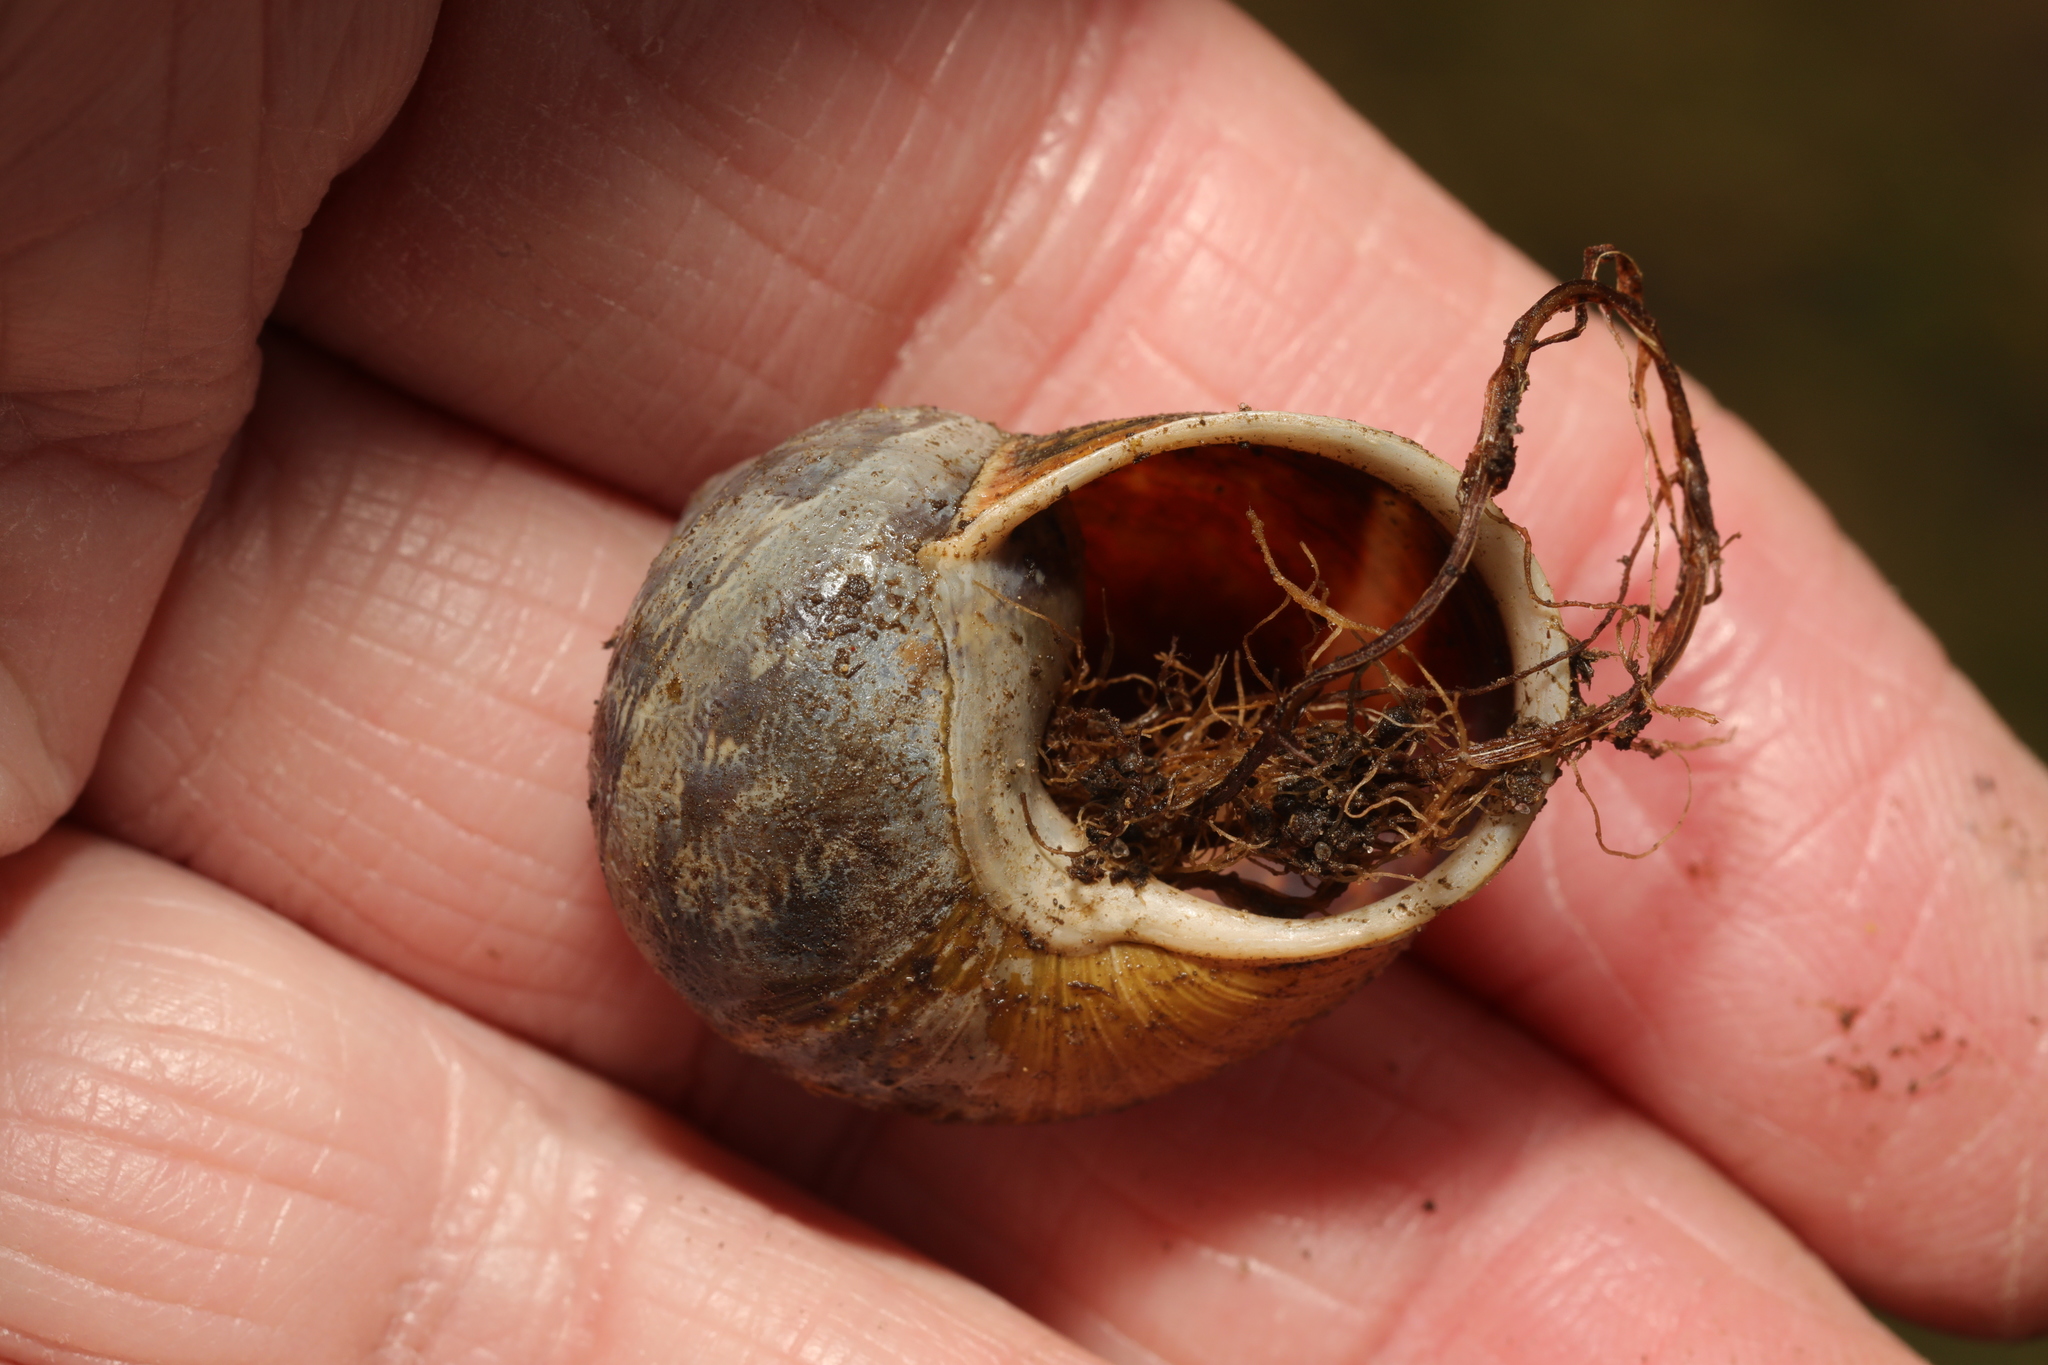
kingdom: Animalia
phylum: Mollusca
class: Gastropoda
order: Stylommatophora
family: Helicidae
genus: Cornu
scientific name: Cornu aspersum
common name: Brown garden snail
